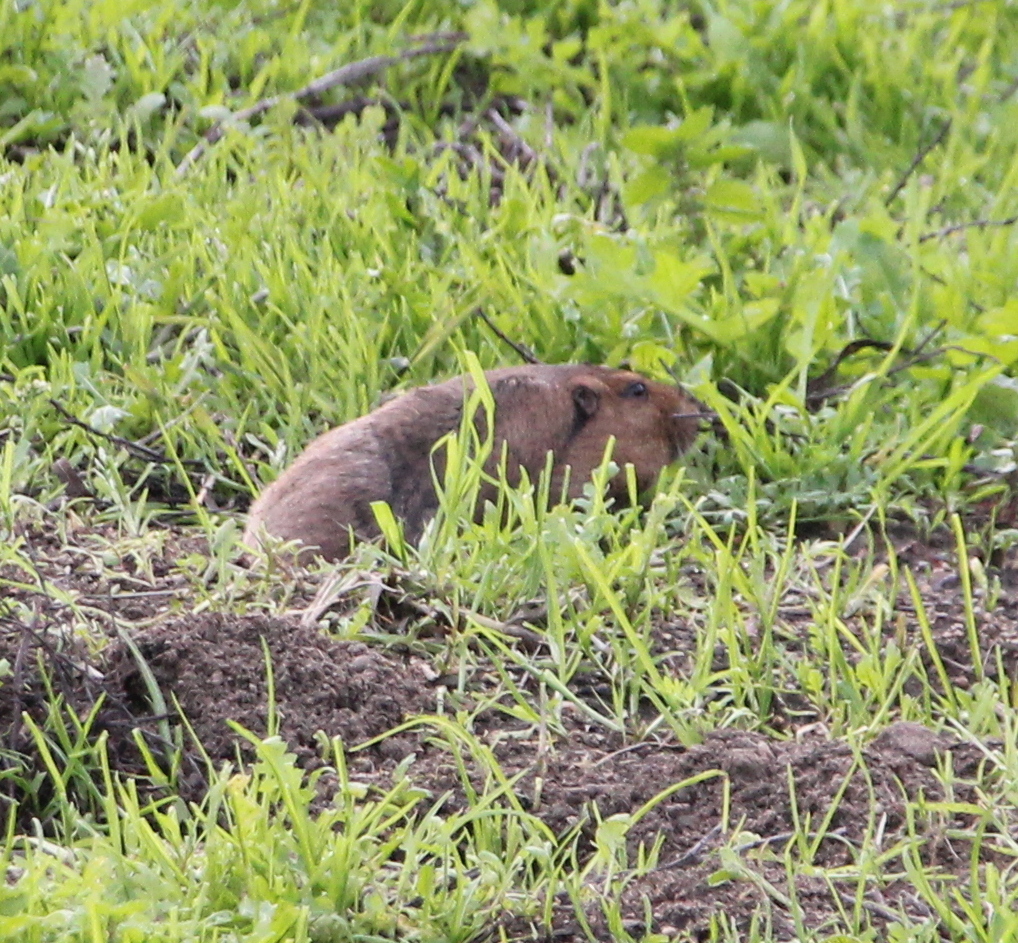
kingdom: Animalia
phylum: Chordata
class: Mammalia
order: Rodentia
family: Geomyidae
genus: Thomomys
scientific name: Thomomys bottae
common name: Botta's pocket gopher
